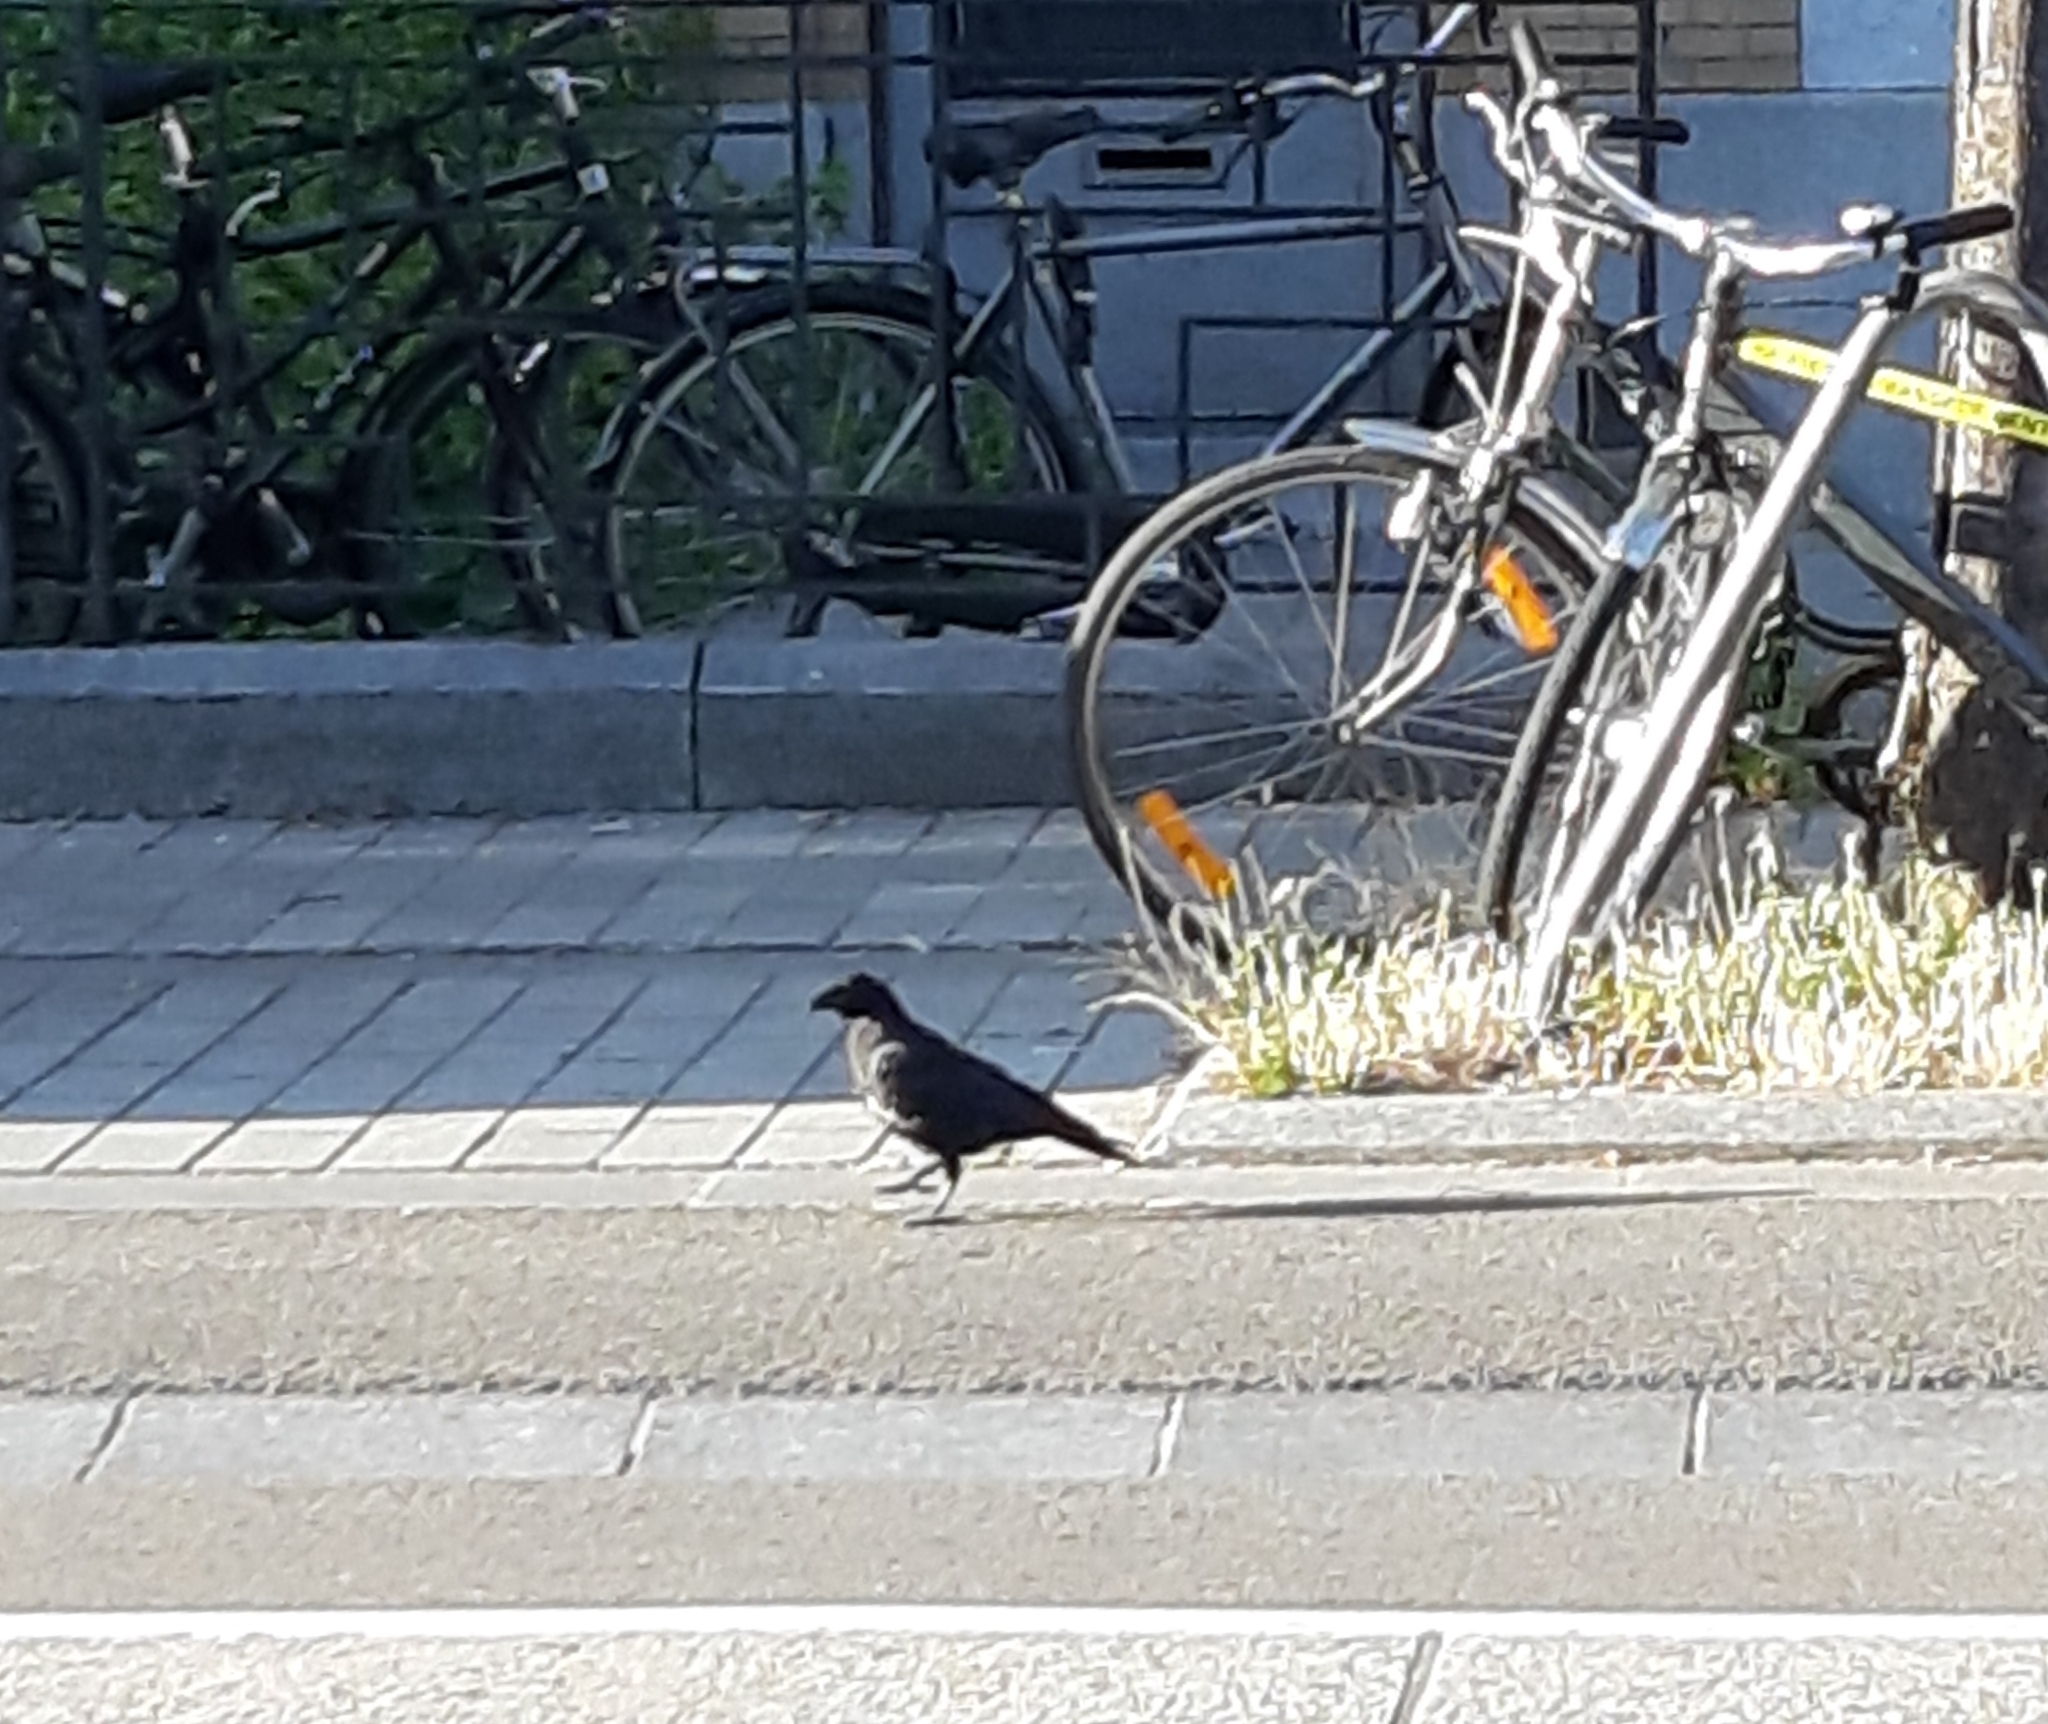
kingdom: Animalia
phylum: Chordata
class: Aves
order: Passeriformes
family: Corvidae
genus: Corvus
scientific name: Corvus corone
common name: Carrion crow
